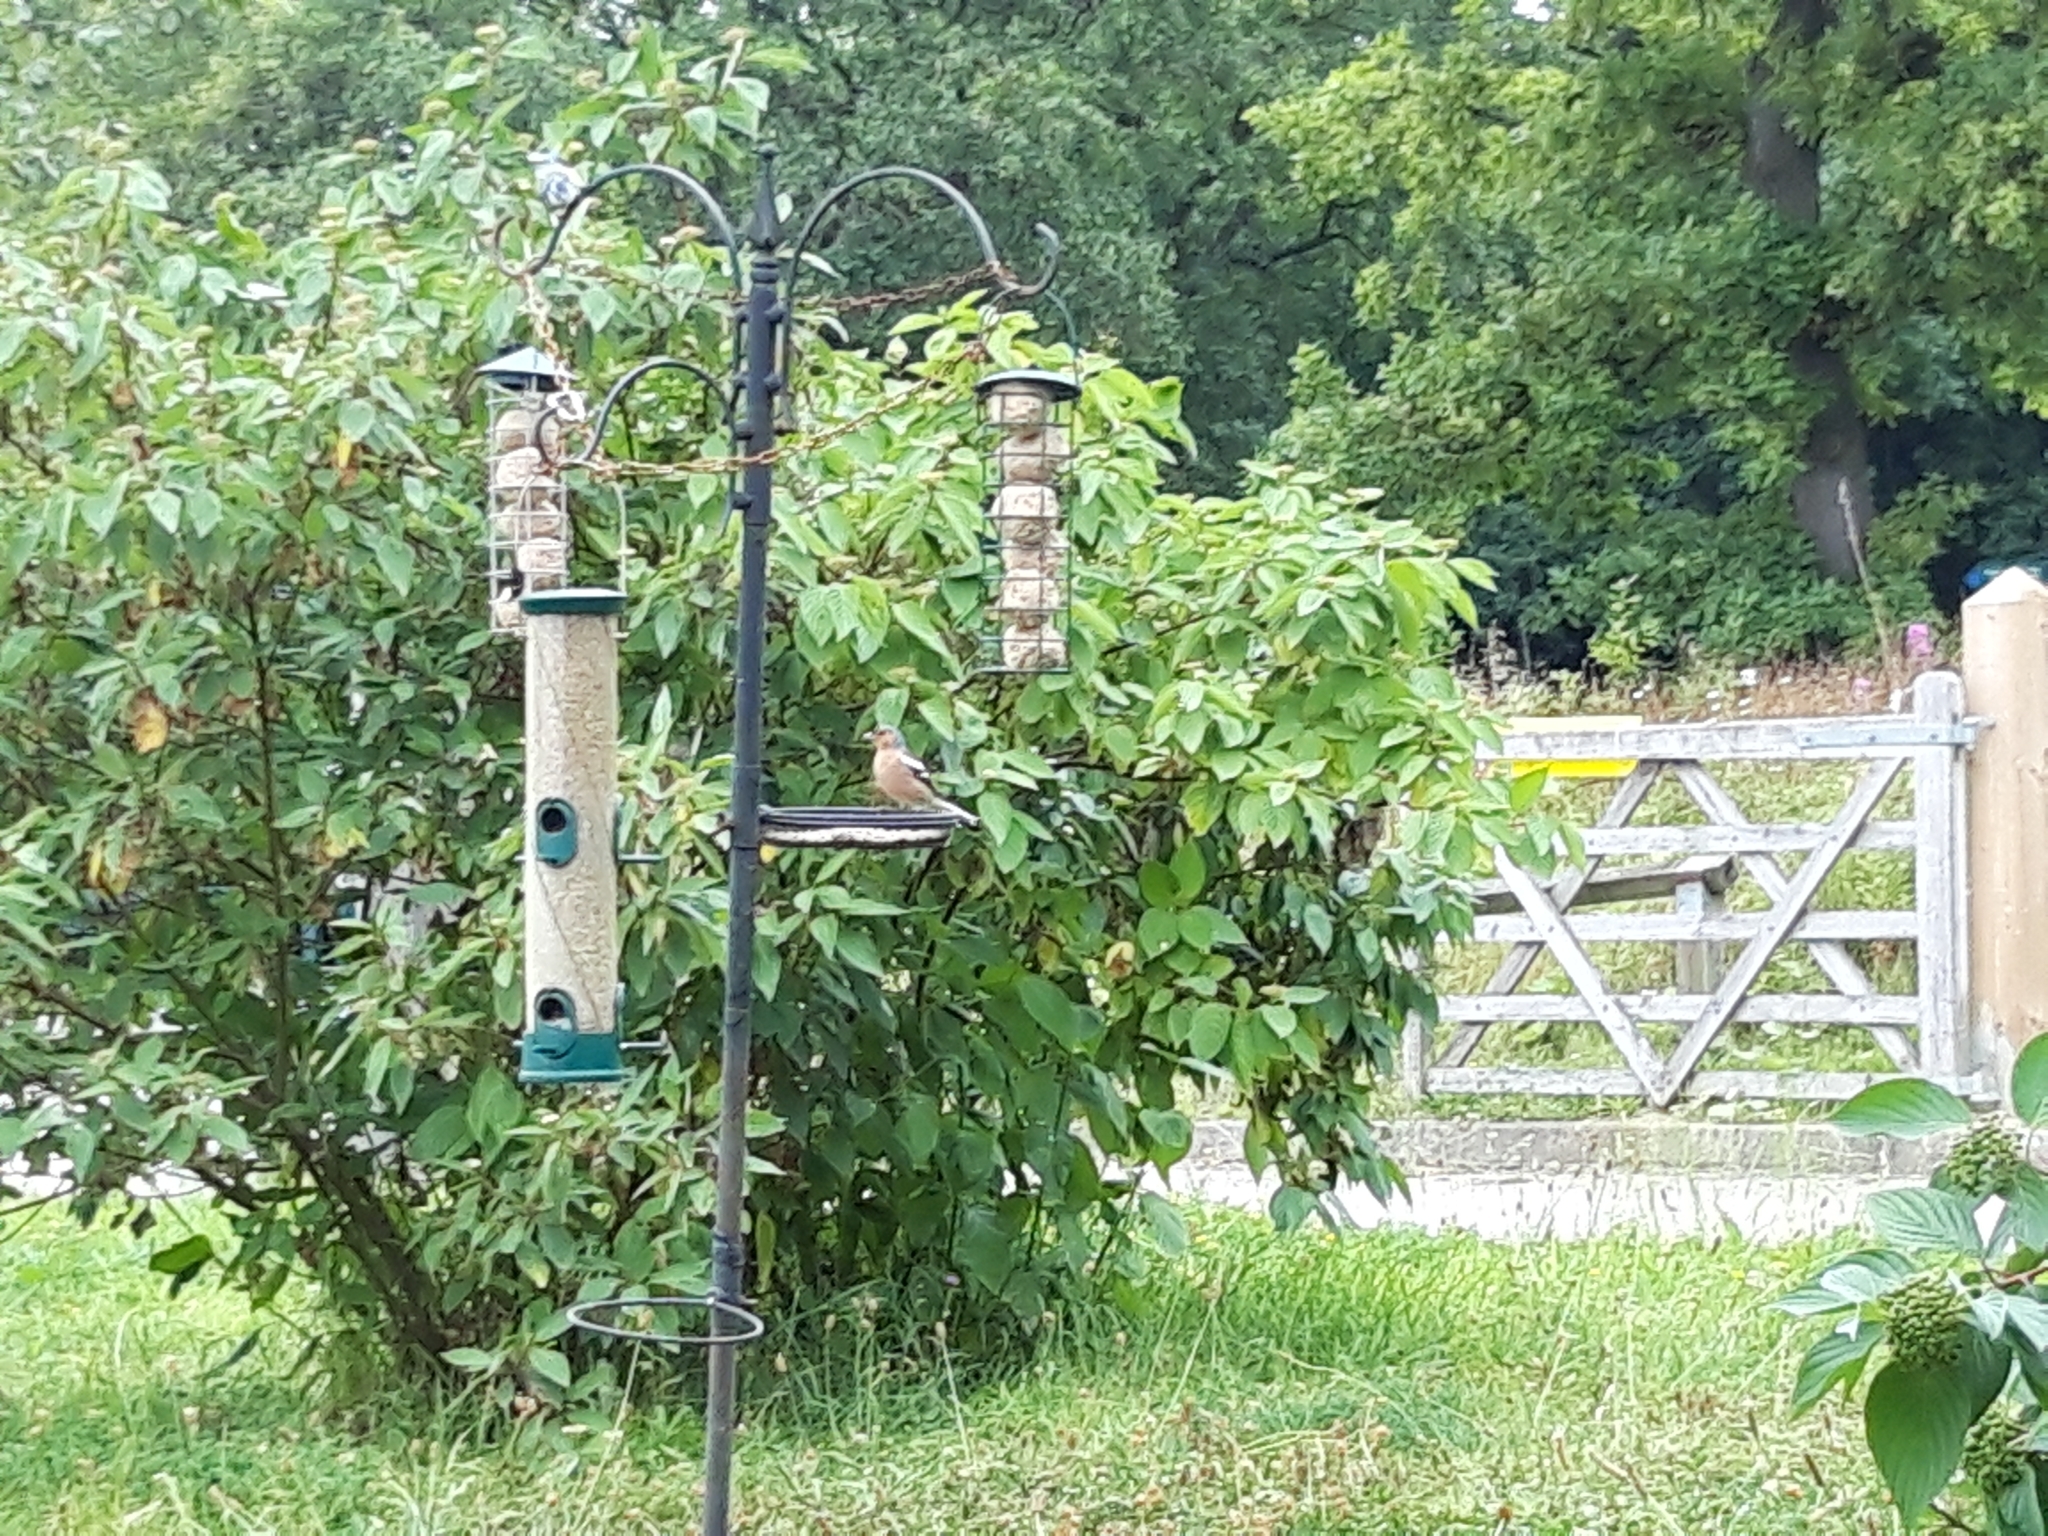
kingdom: Animalia
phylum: Chordata
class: Aves
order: Passeriformes
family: Fringillidae
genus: Fringilla
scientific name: Fringilla coelebs
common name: Common chaffinch
